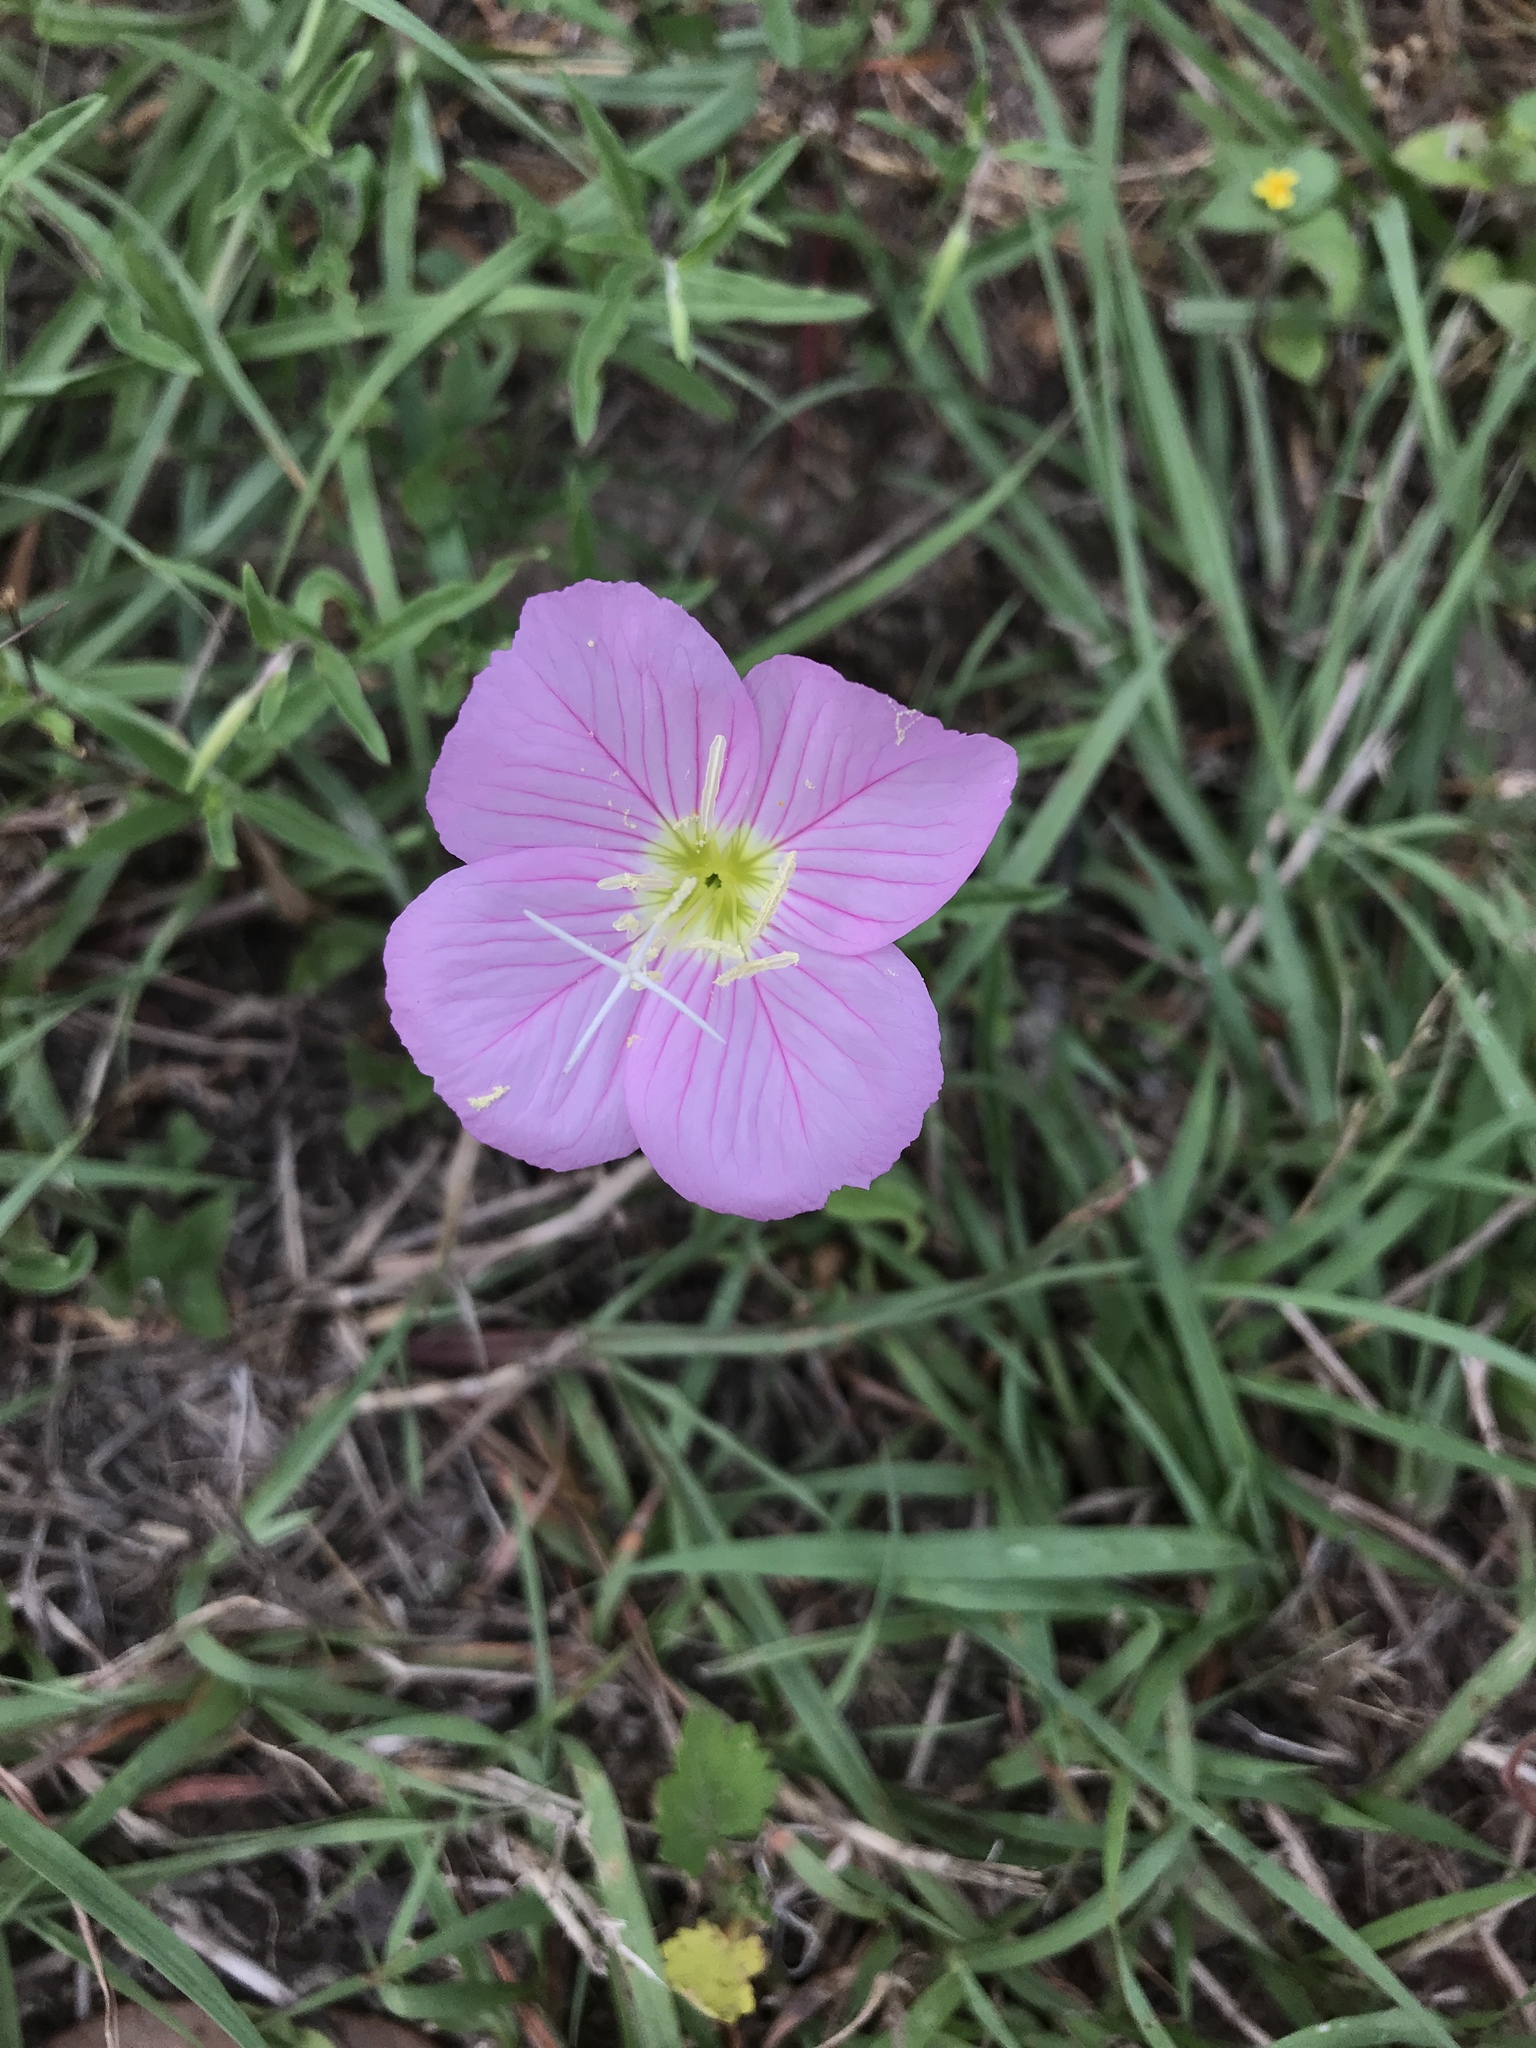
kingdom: Plantae
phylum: Tracheophyta
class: Magnoliopsida
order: Myrtales
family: Onagraceae
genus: Oenothera
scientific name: Oenothera speciosa
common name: White evening-primrose
